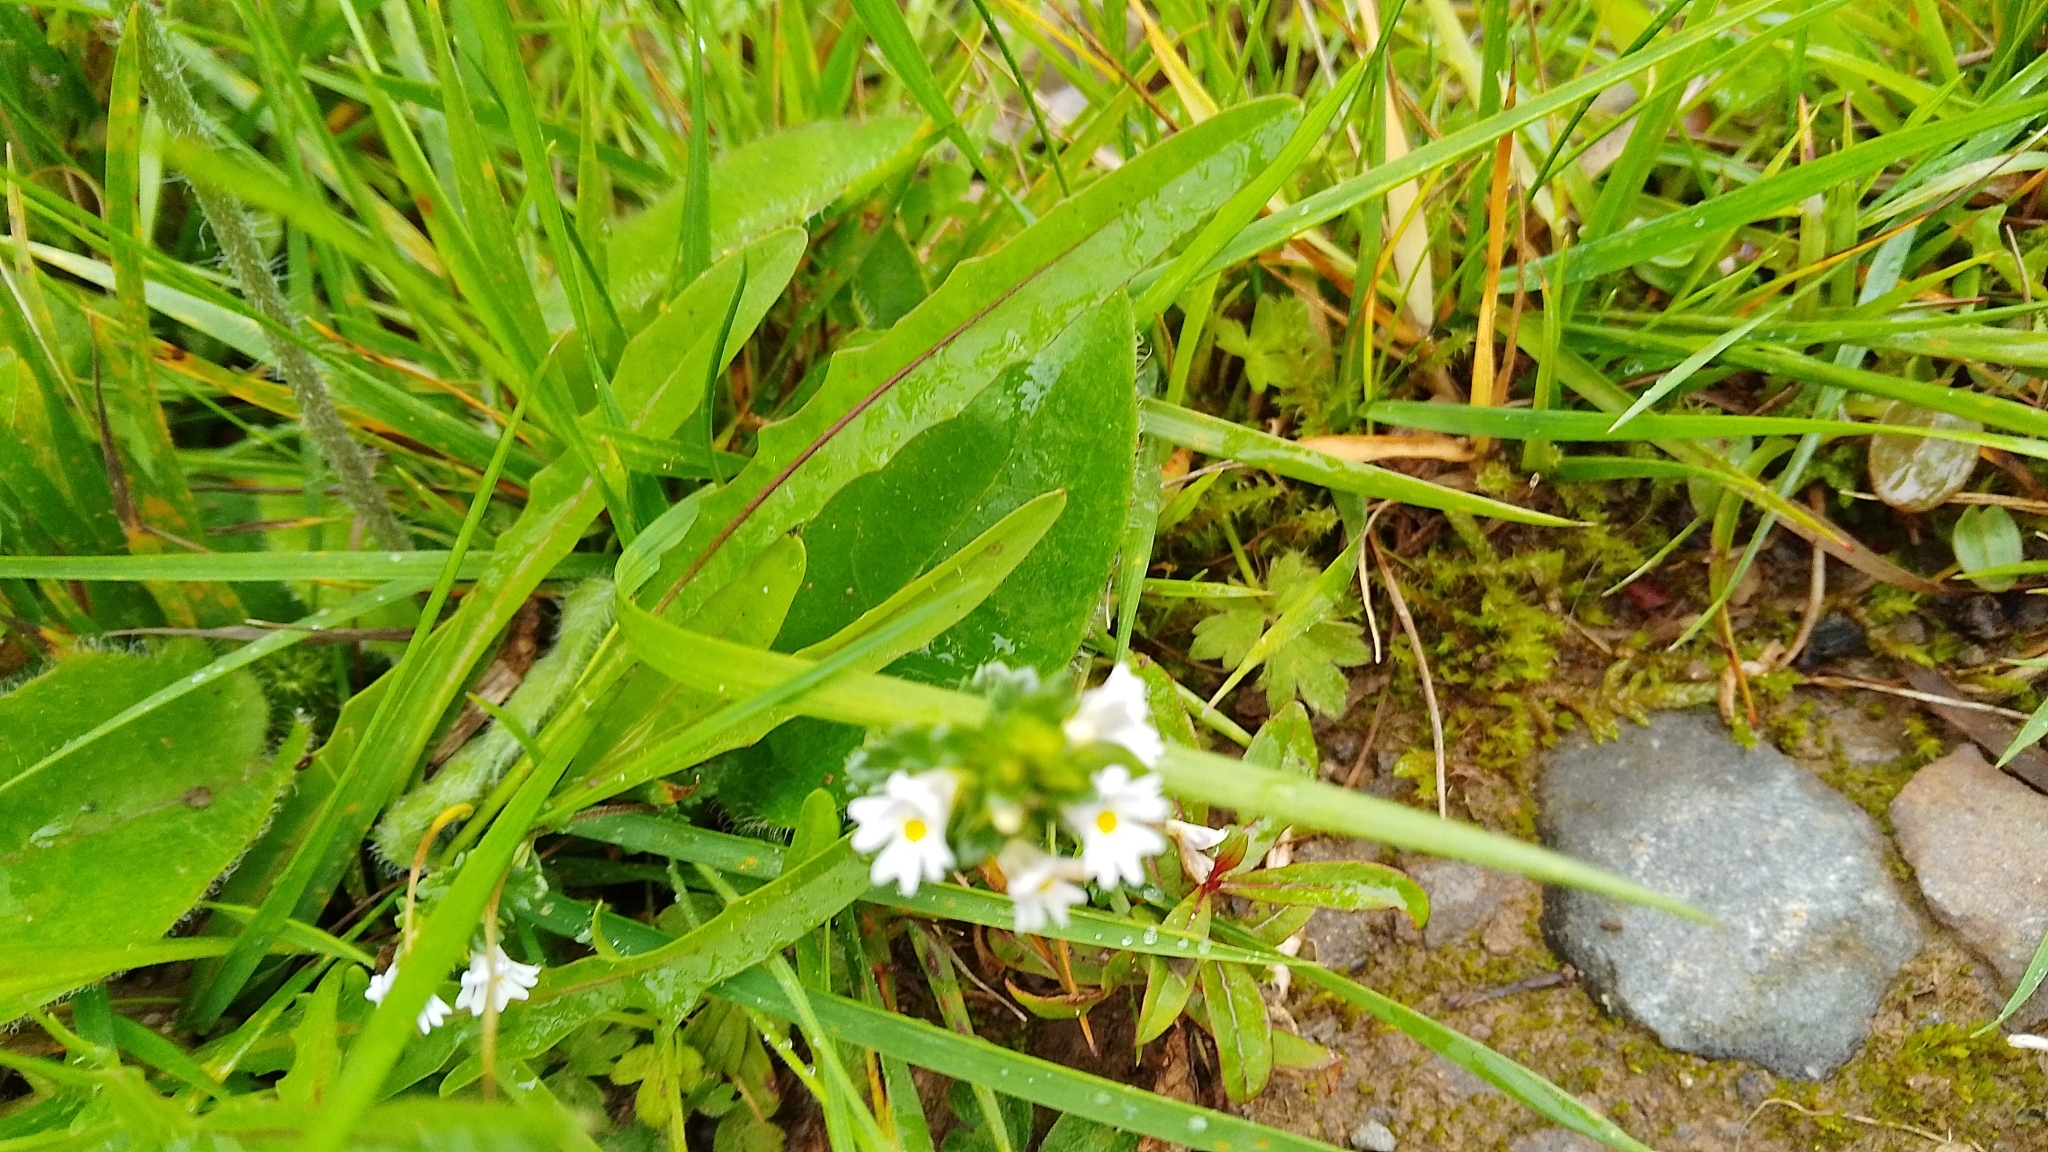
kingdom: Plantae
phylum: Tracheophyta
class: Magnoliopsida
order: Lamiales
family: Orobanchaceae
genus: Euphrasia
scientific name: Euphrasia
